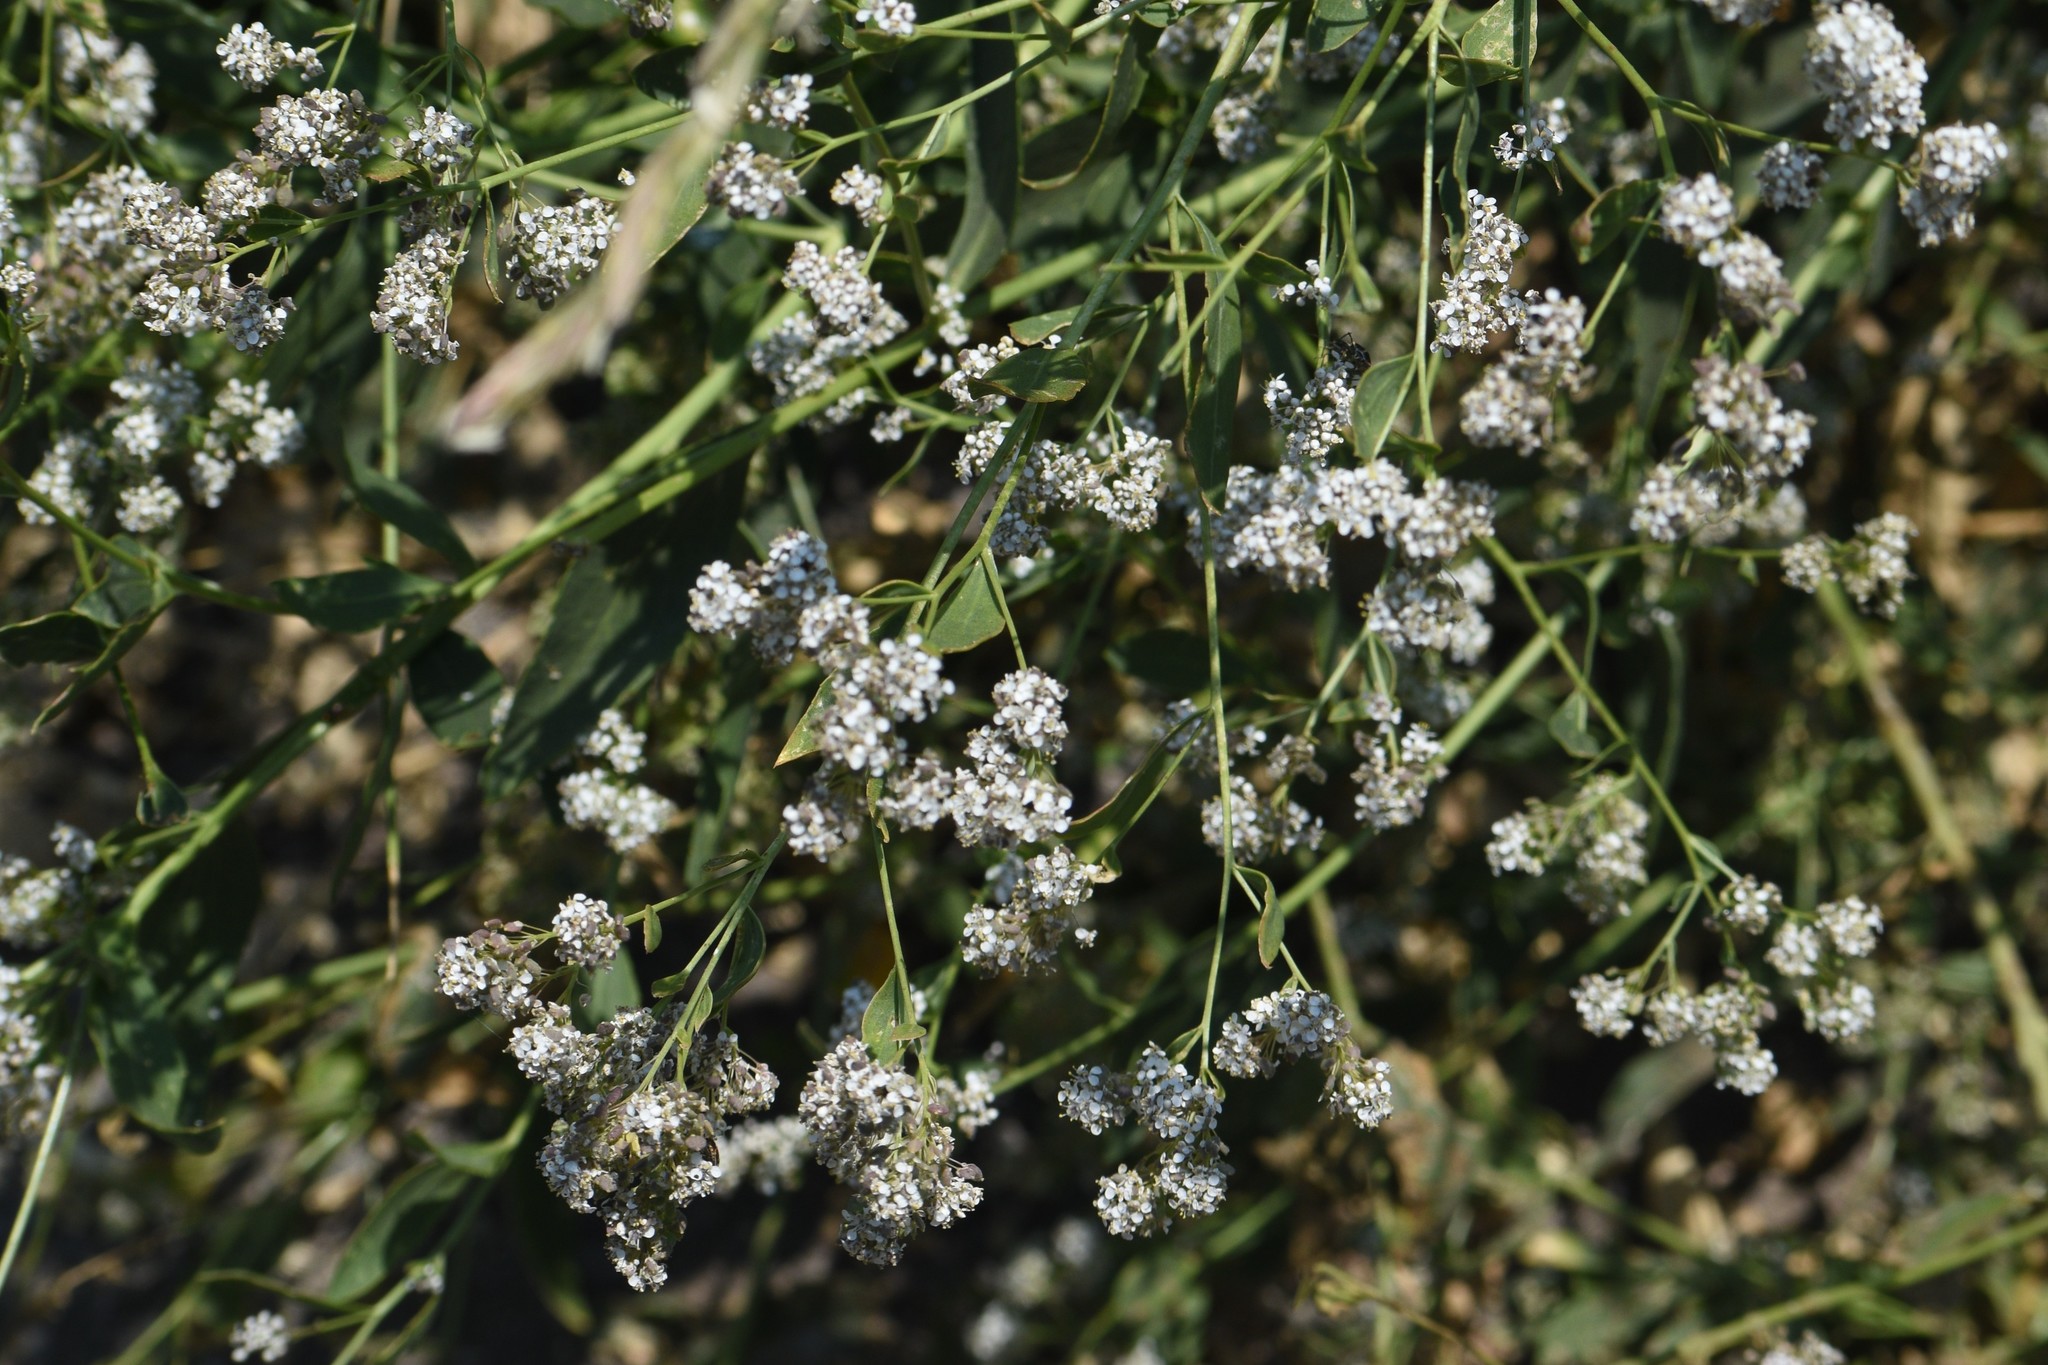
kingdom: Plantae
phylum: Tracheophyta
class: Magnoliopsida
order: Brassicales
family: Brassicaceae
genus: Lepidium
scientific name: Lepidium latifolium
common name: Dittander
